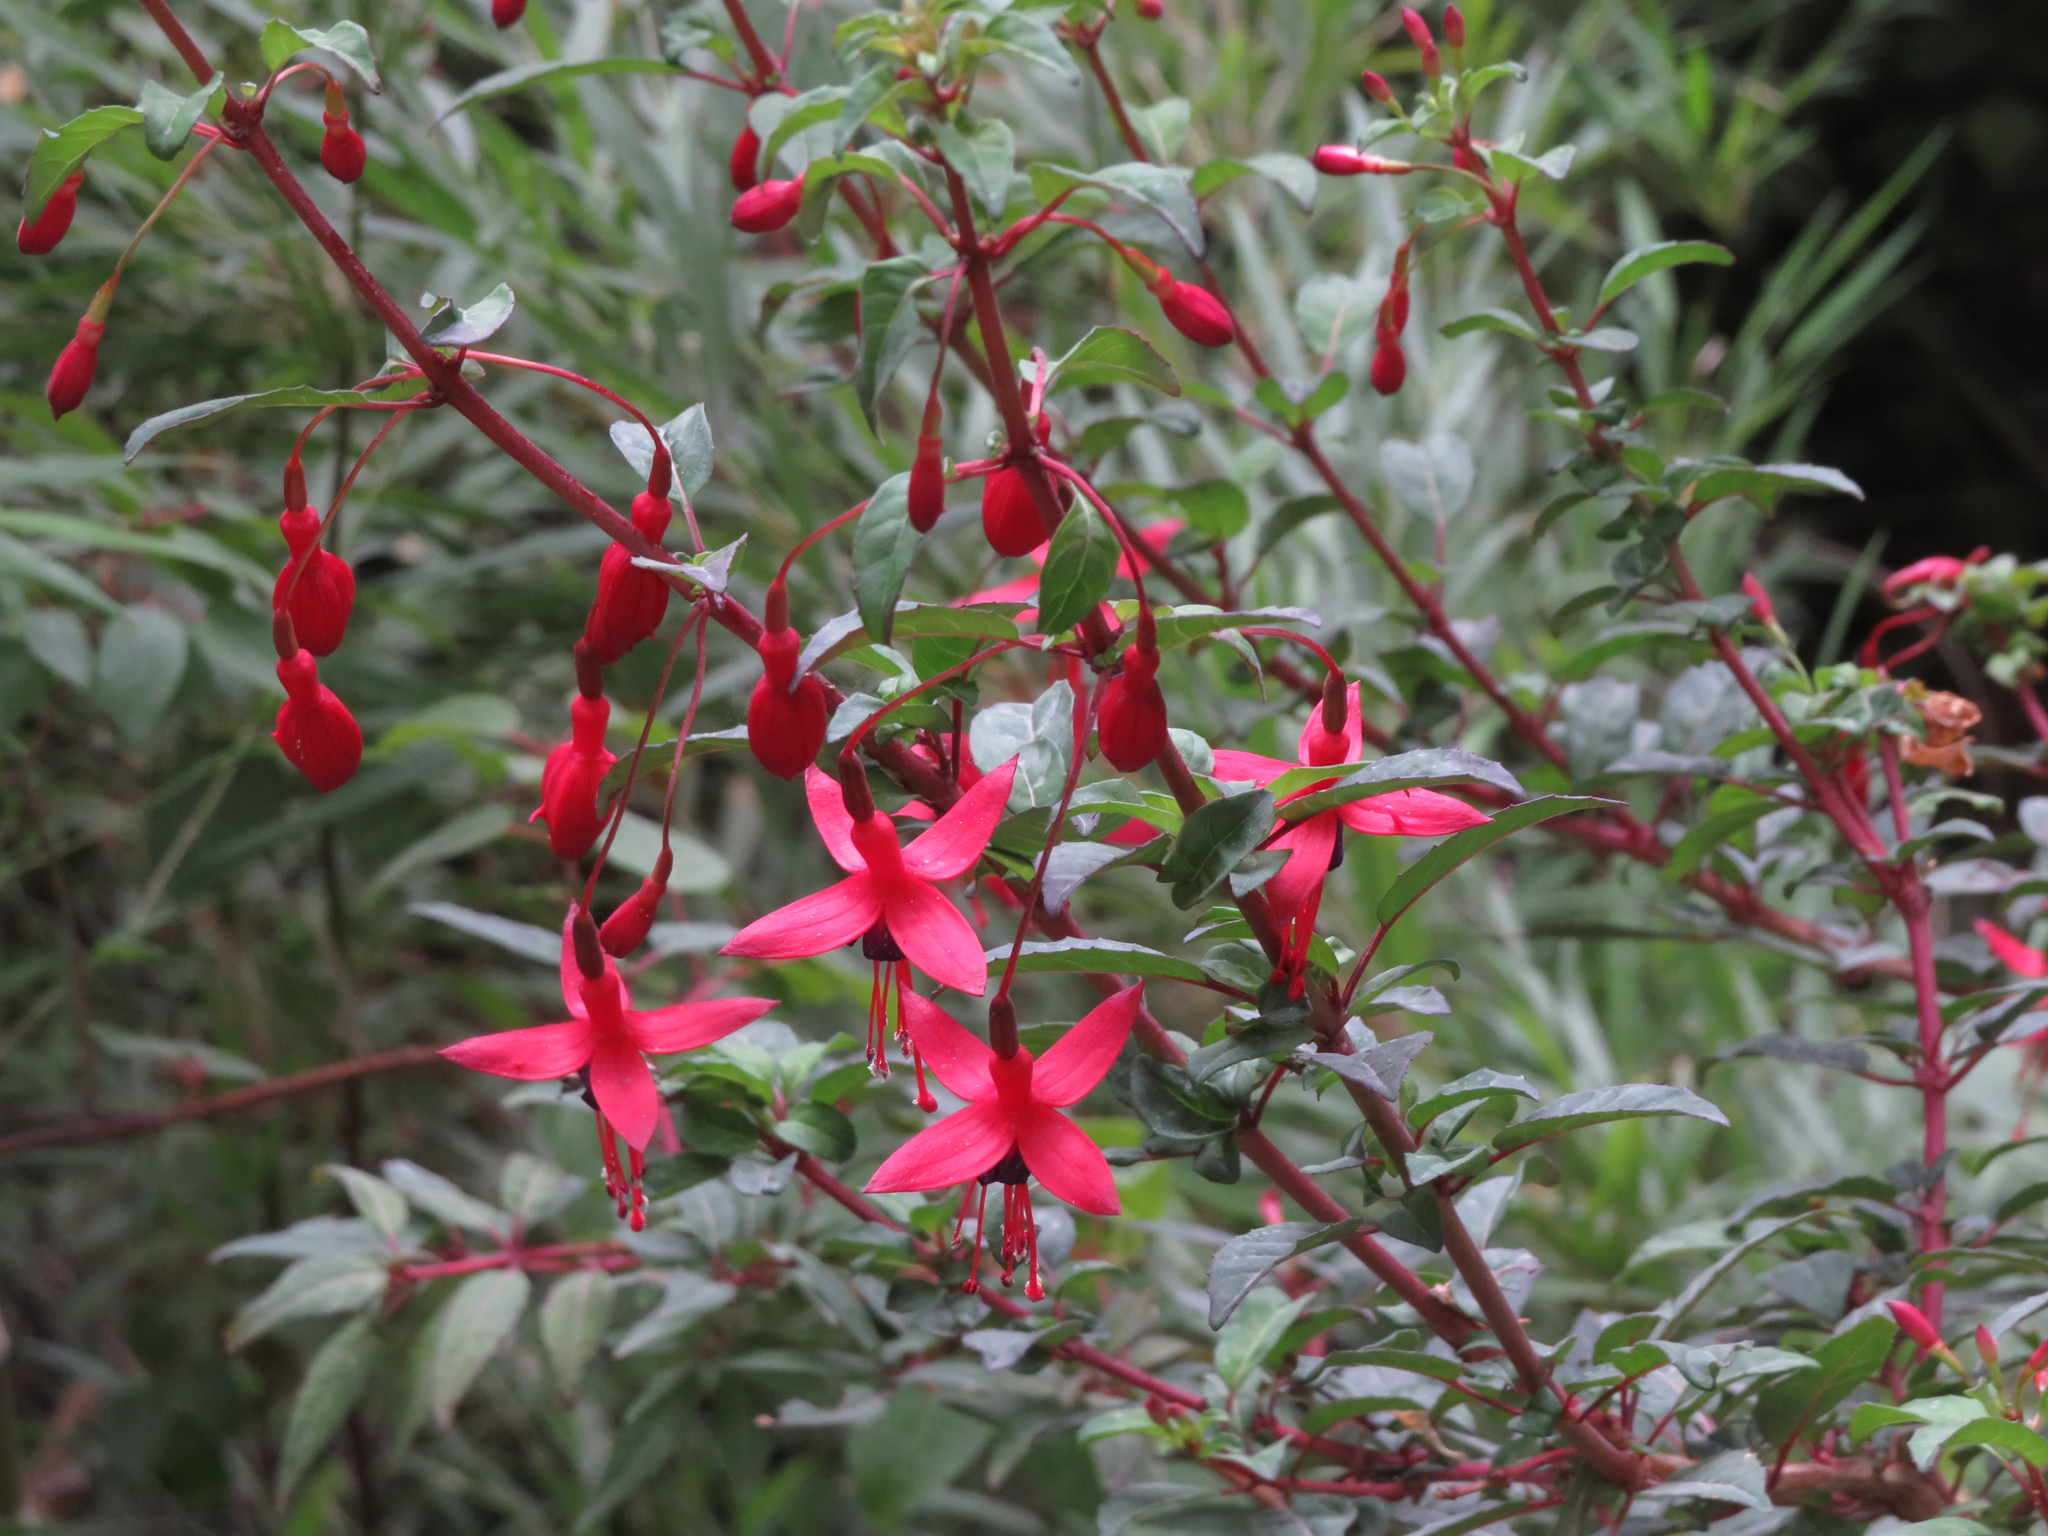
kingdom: Plantae
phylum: Tracheophyta
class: Magnoliopsida
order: Myrtales
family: Onagraceae
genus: Fuchsia
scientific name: Fuchsia magellanica
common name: Hardy fuchsia
